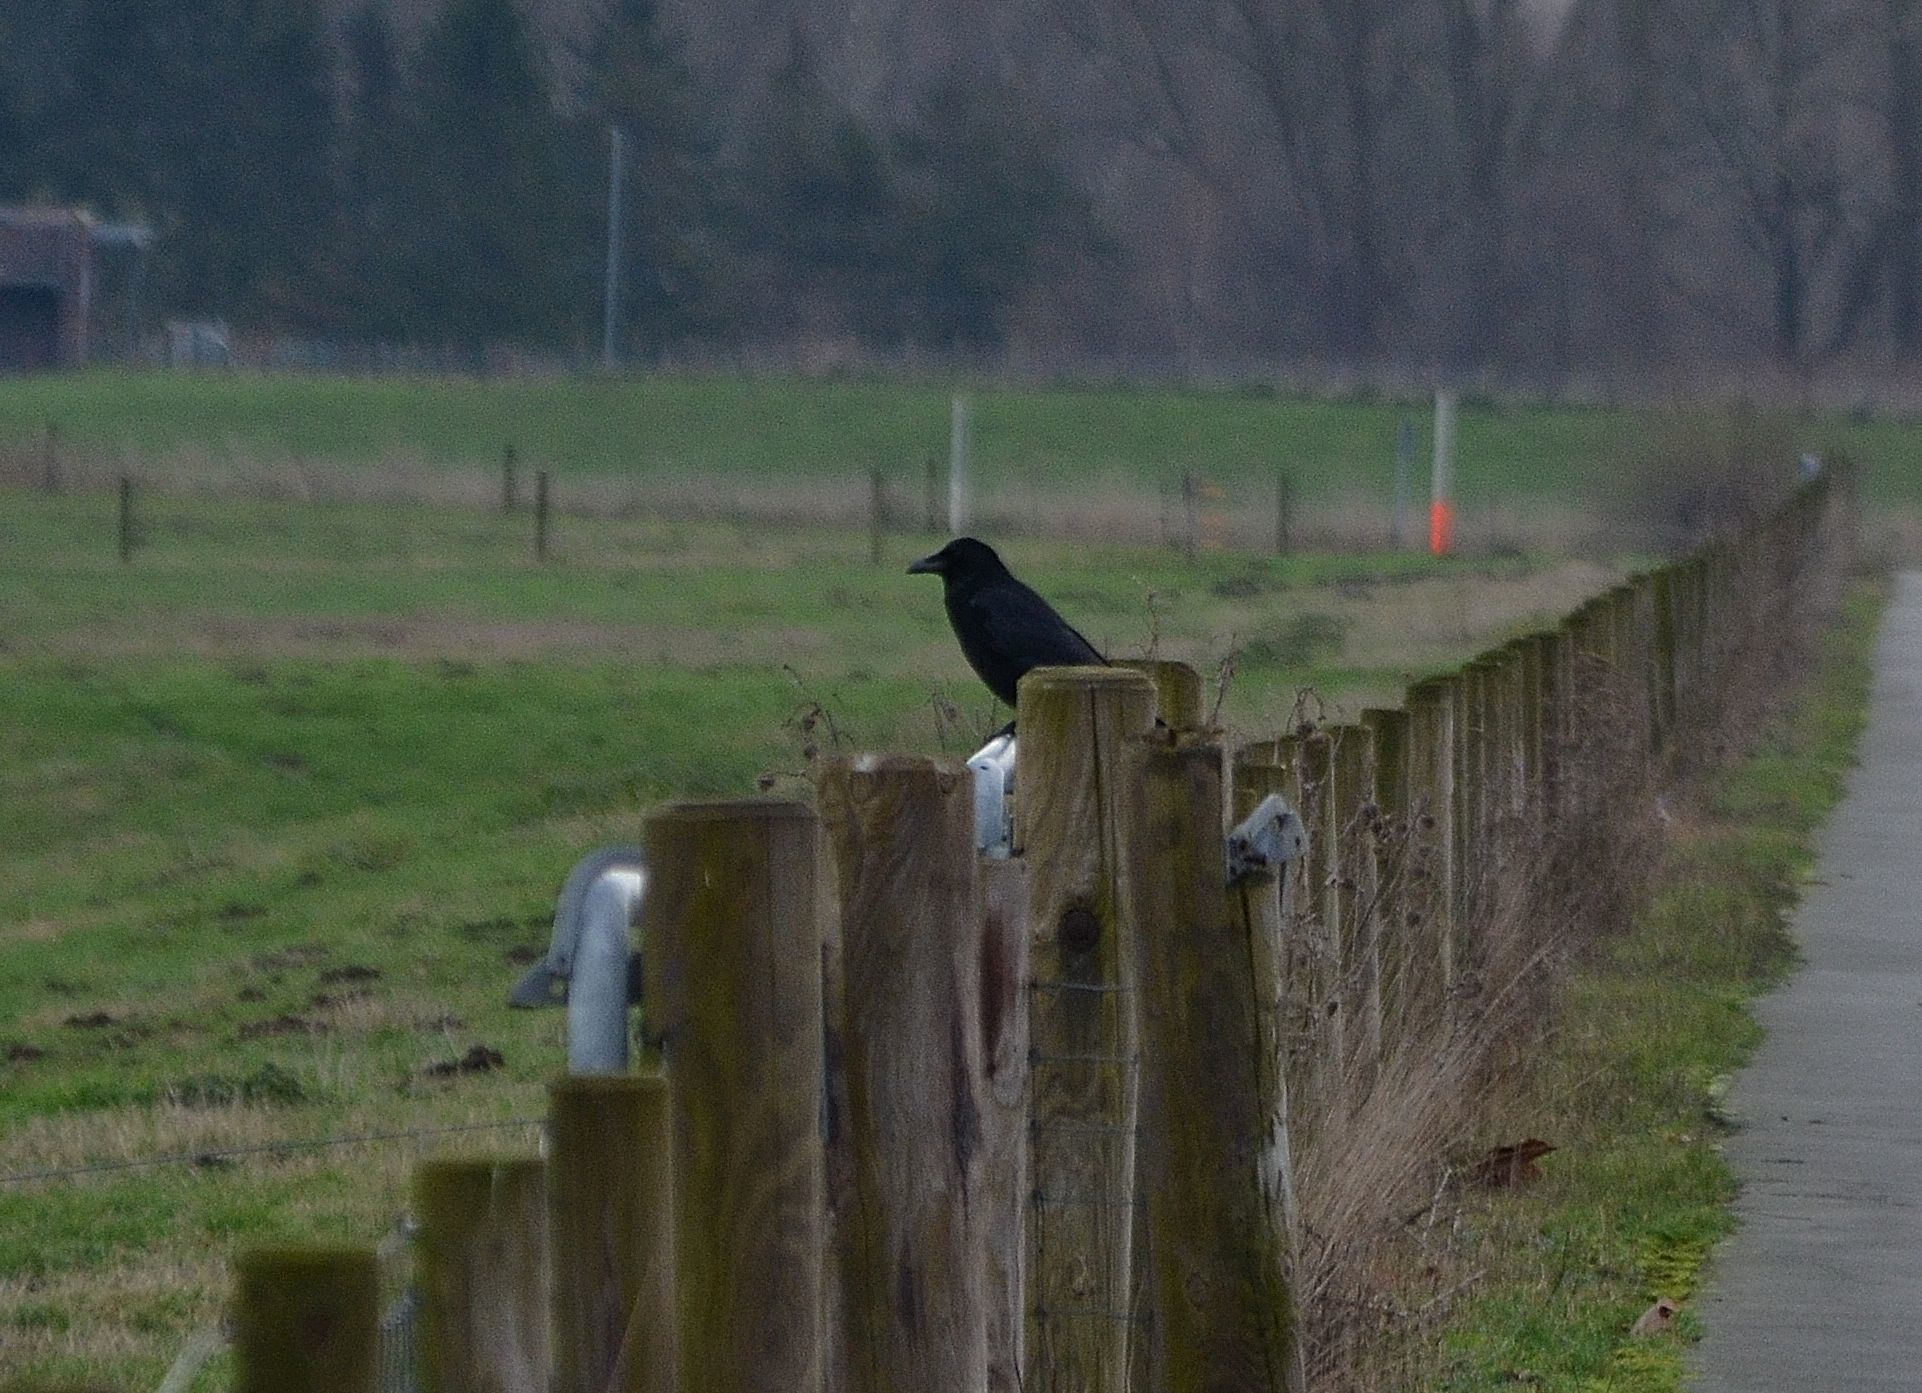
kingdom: Animalia
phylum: Chordata
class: Aves
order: Passeriformes
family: Corvidae
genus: Corvus
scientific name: Corvus corone
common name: Carrion crow
